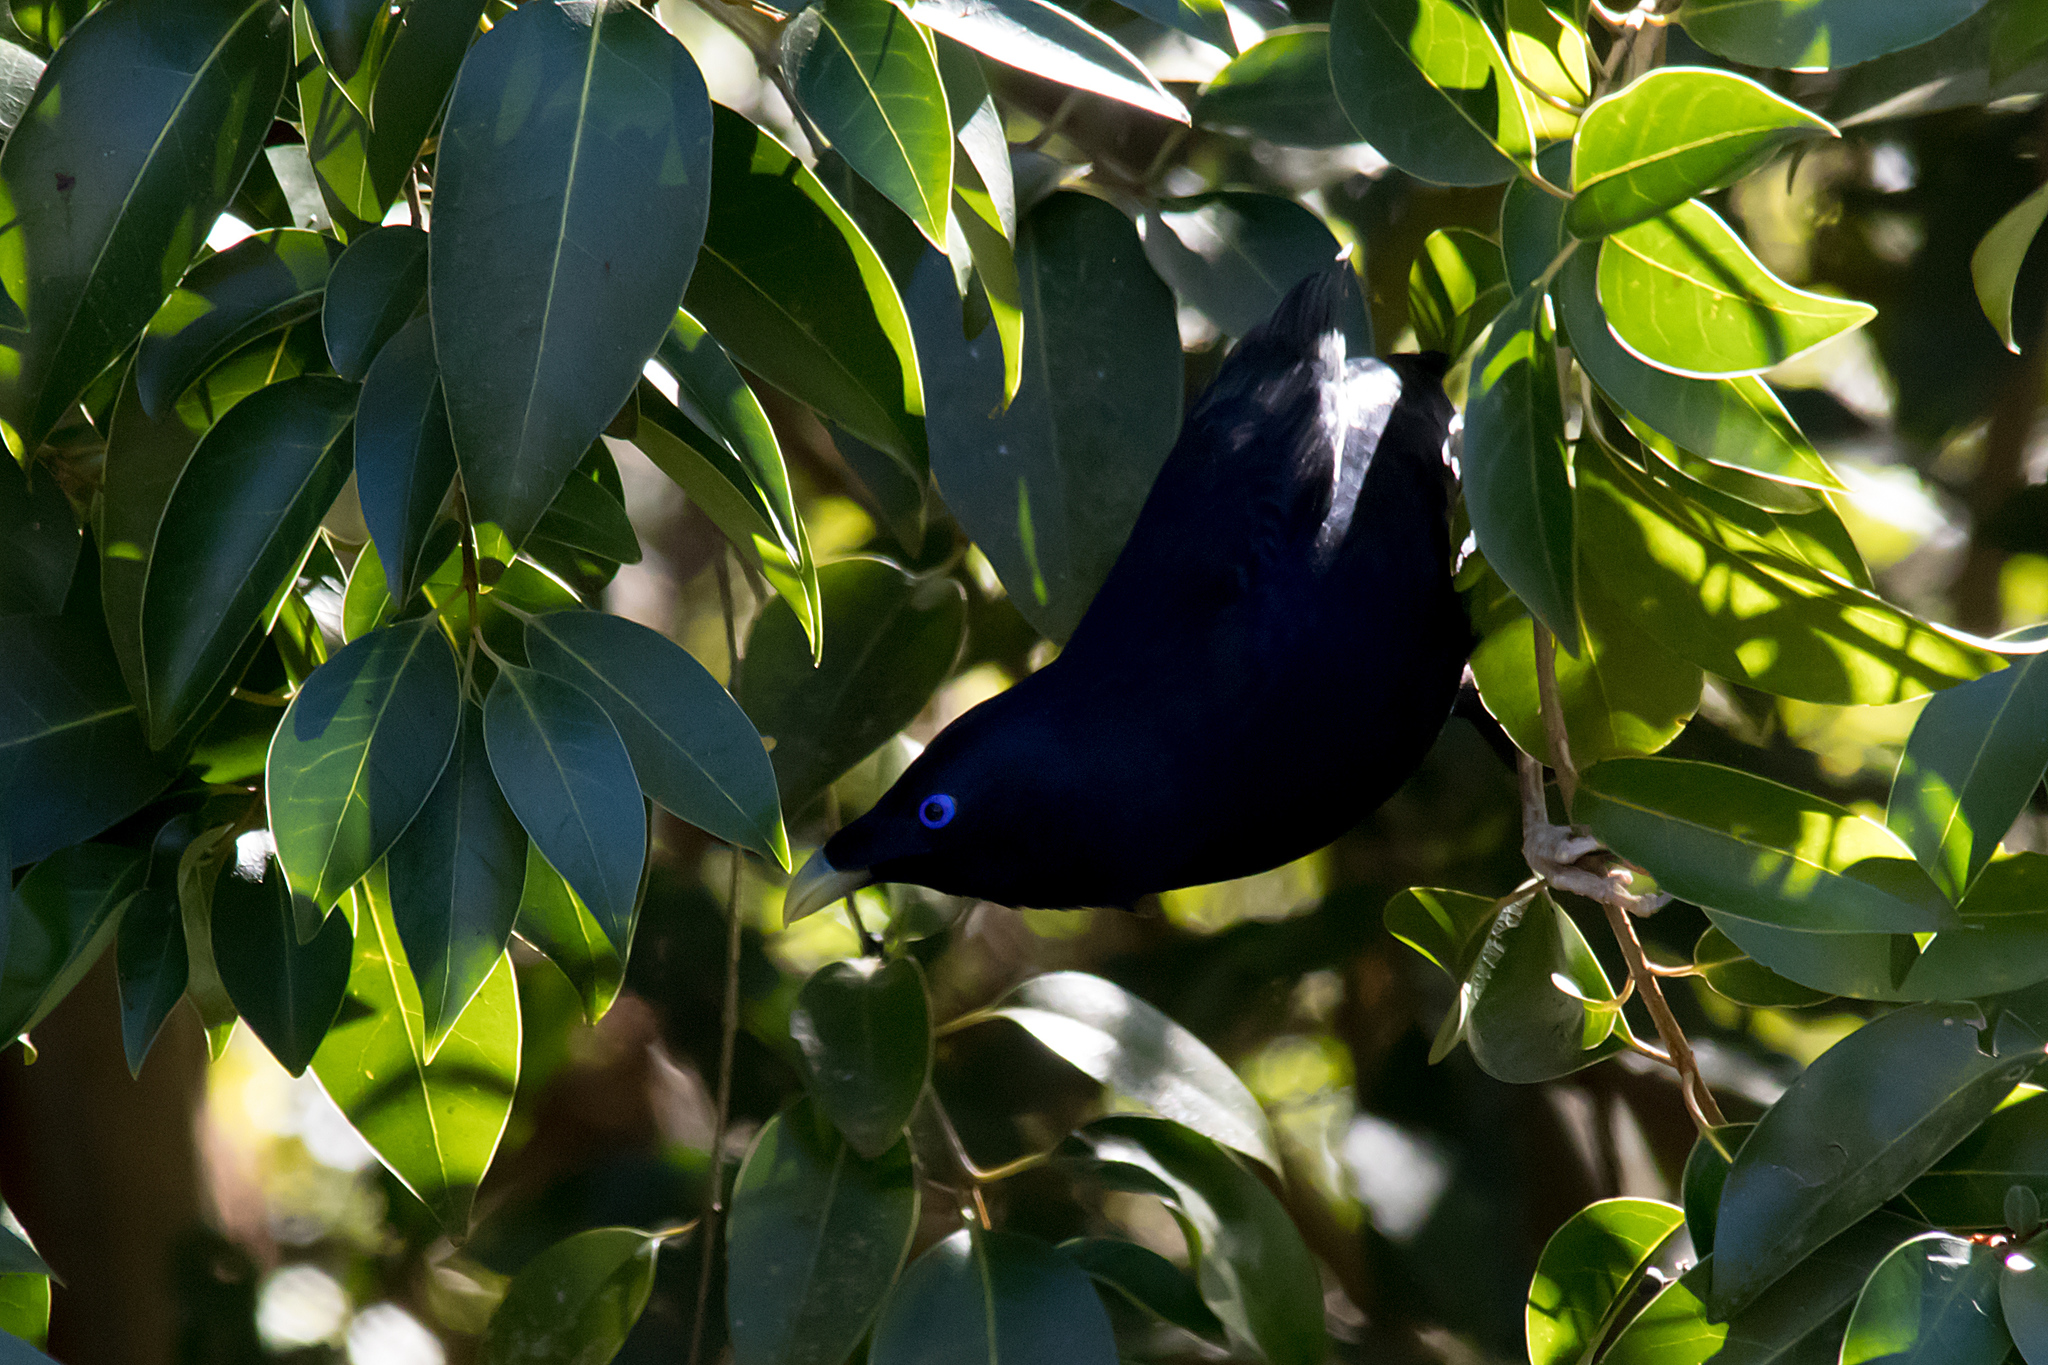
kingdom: Animalia
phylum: Chordata
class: Aves
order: Passeriformes
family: Ptilonorhynchidae
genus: Ptilonorhynchus
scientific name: Ptilonorhynchus violaceus
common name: Satin bowerbird
